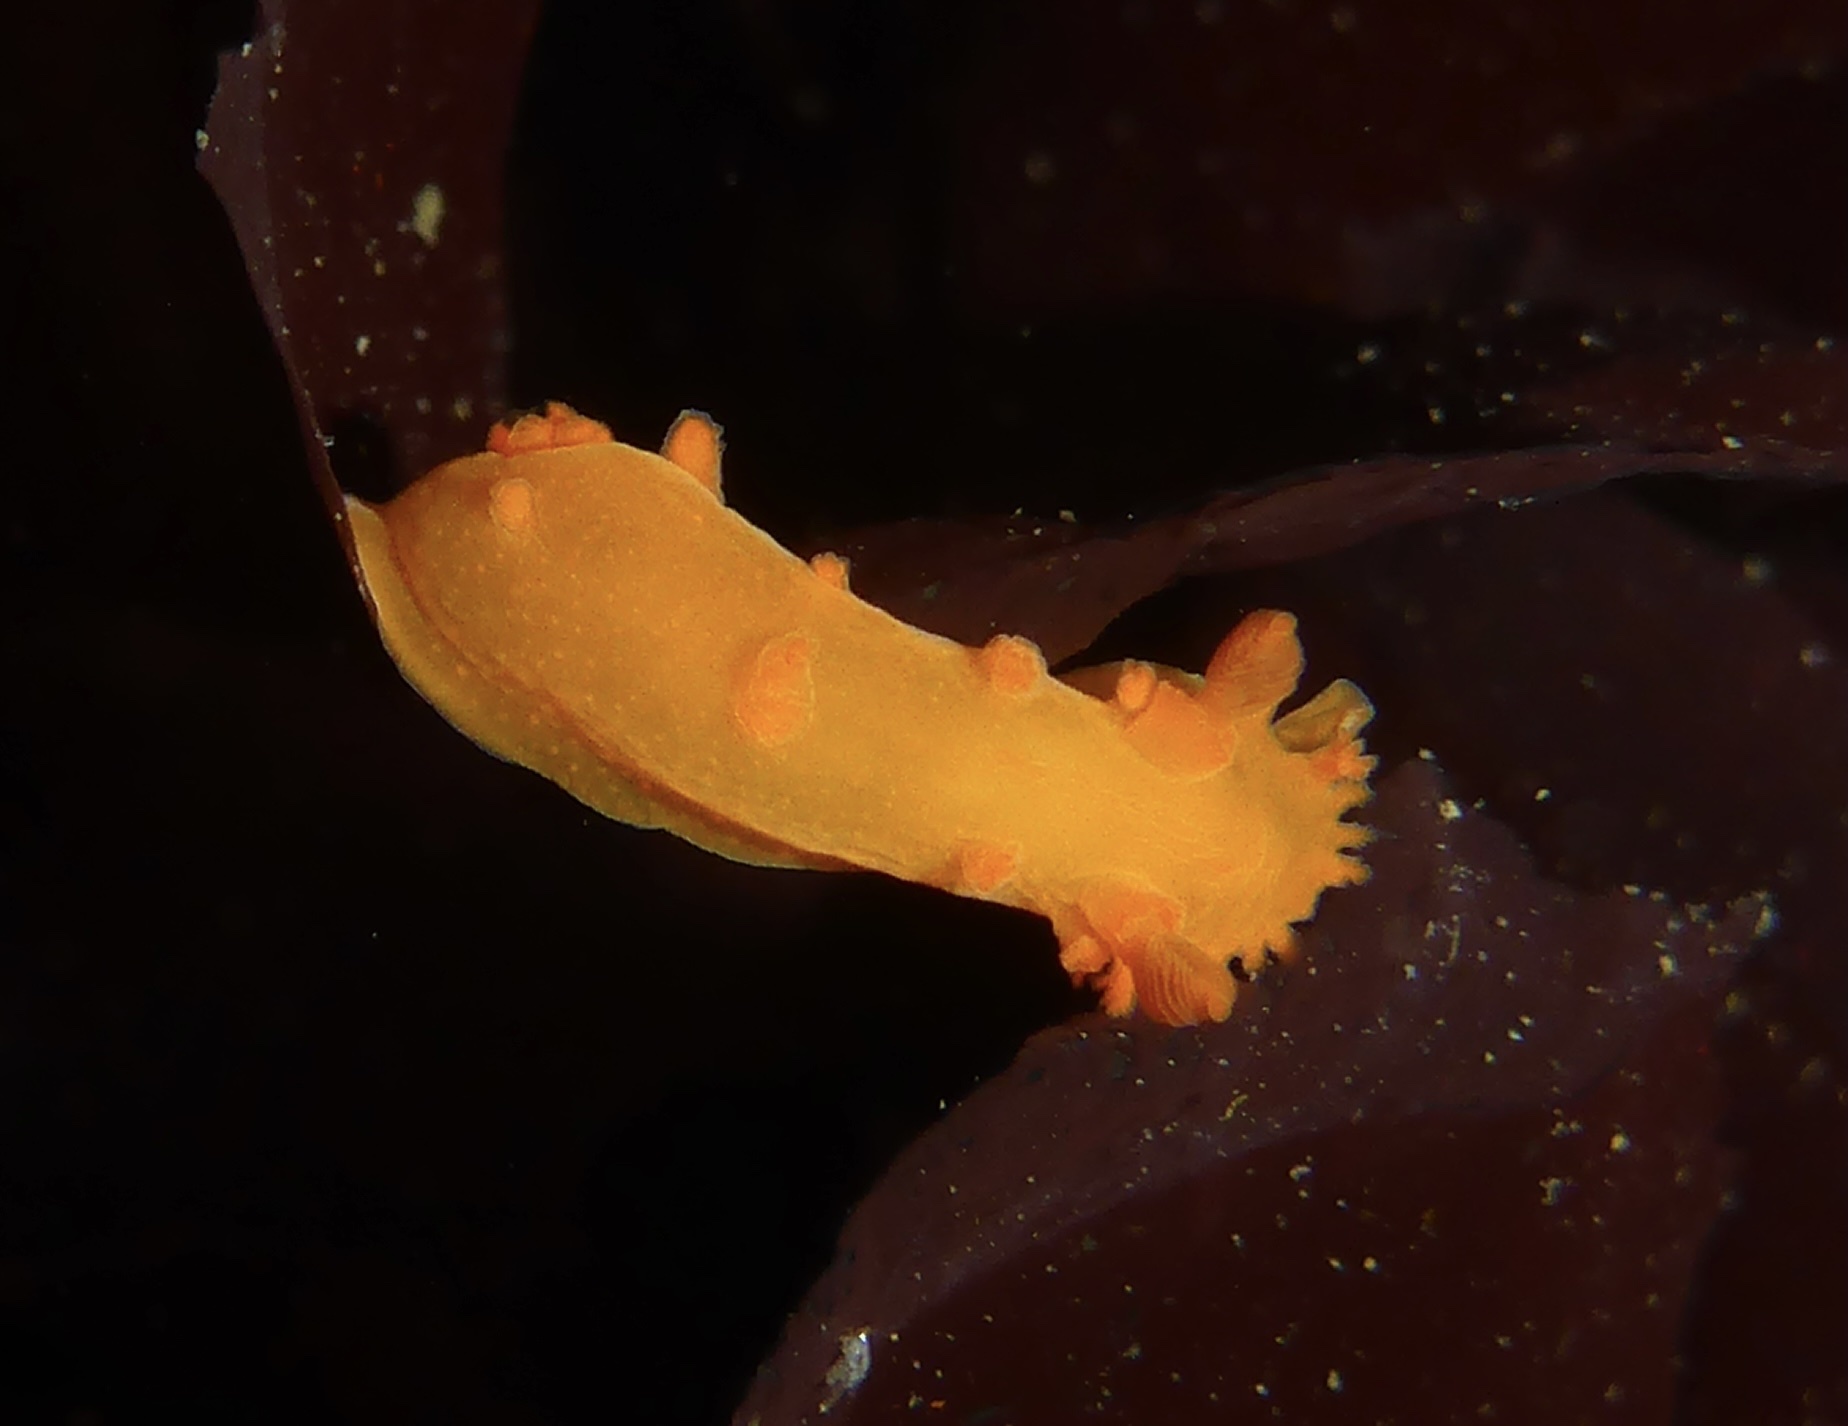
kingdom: Animalia
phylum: Mollusca
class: Gastropoda
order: Nudibranchia
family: Polyceridae
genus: Triopha
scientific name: Triopha maculata
